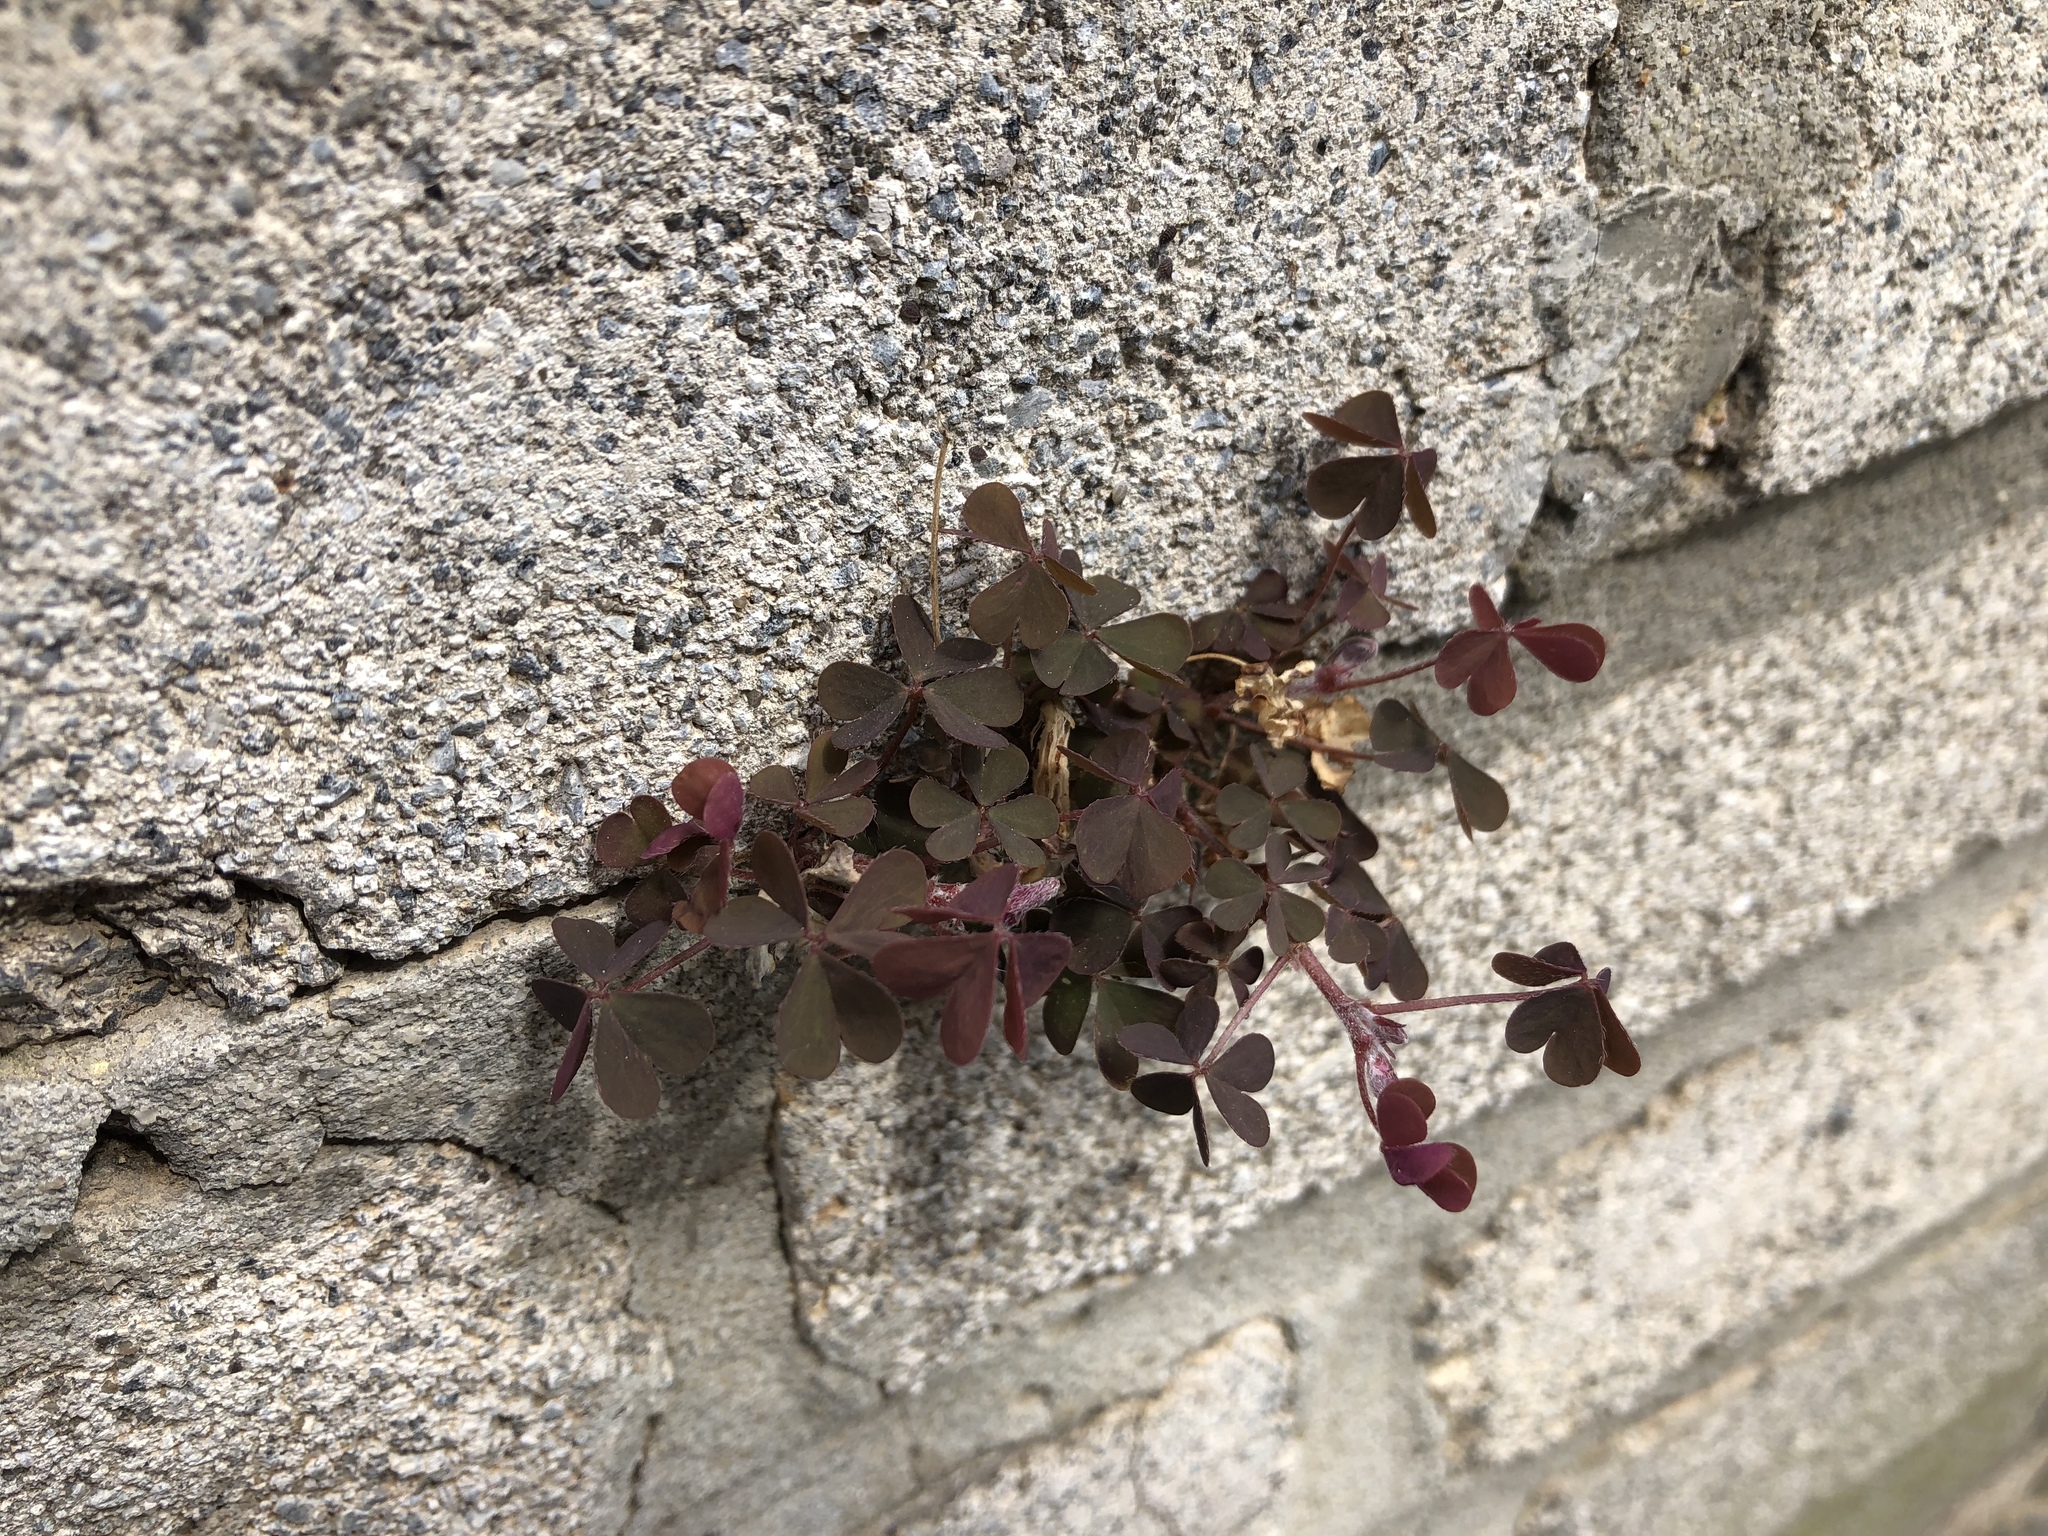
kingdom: Plantae
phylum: Tracheophyta
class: Magnoliopsida
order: Oxalidales
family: Oxalidaceae
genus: Oxalis
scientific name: Oxalis corniculata
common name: Procumbent yellow-sorrel
